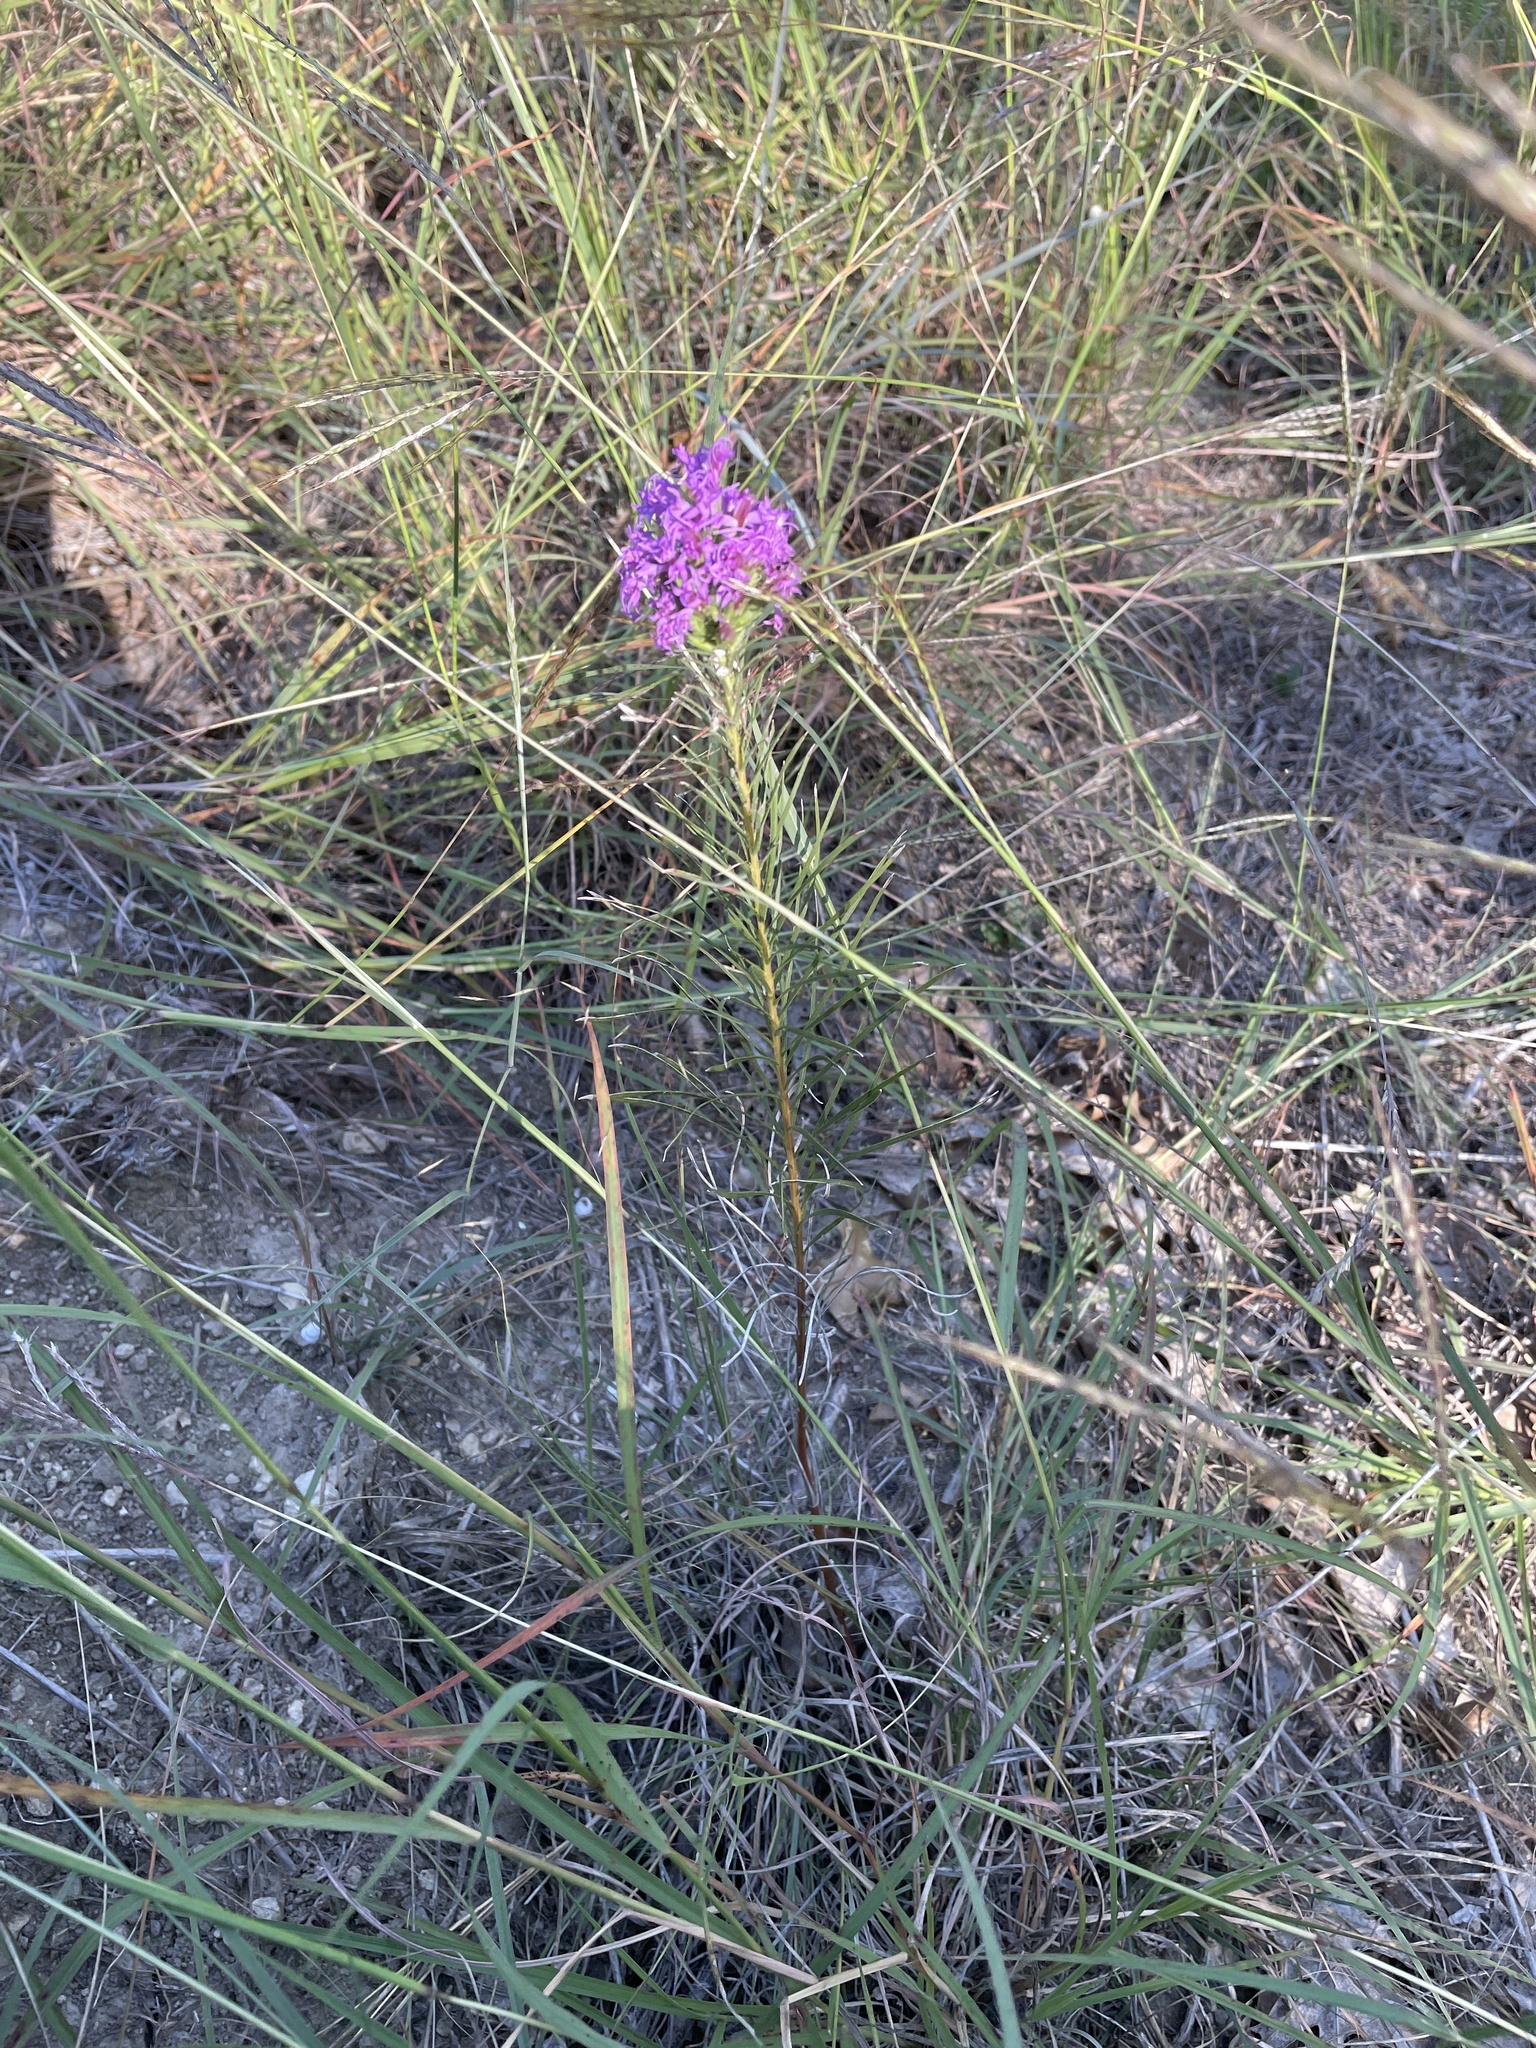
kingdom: Plantae
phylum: Tracheophyta
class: Magnoliopsida
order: Asterales
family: Asteraceae
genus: Liatris
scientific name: Liatris punctata
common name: Dotted gayfeather
